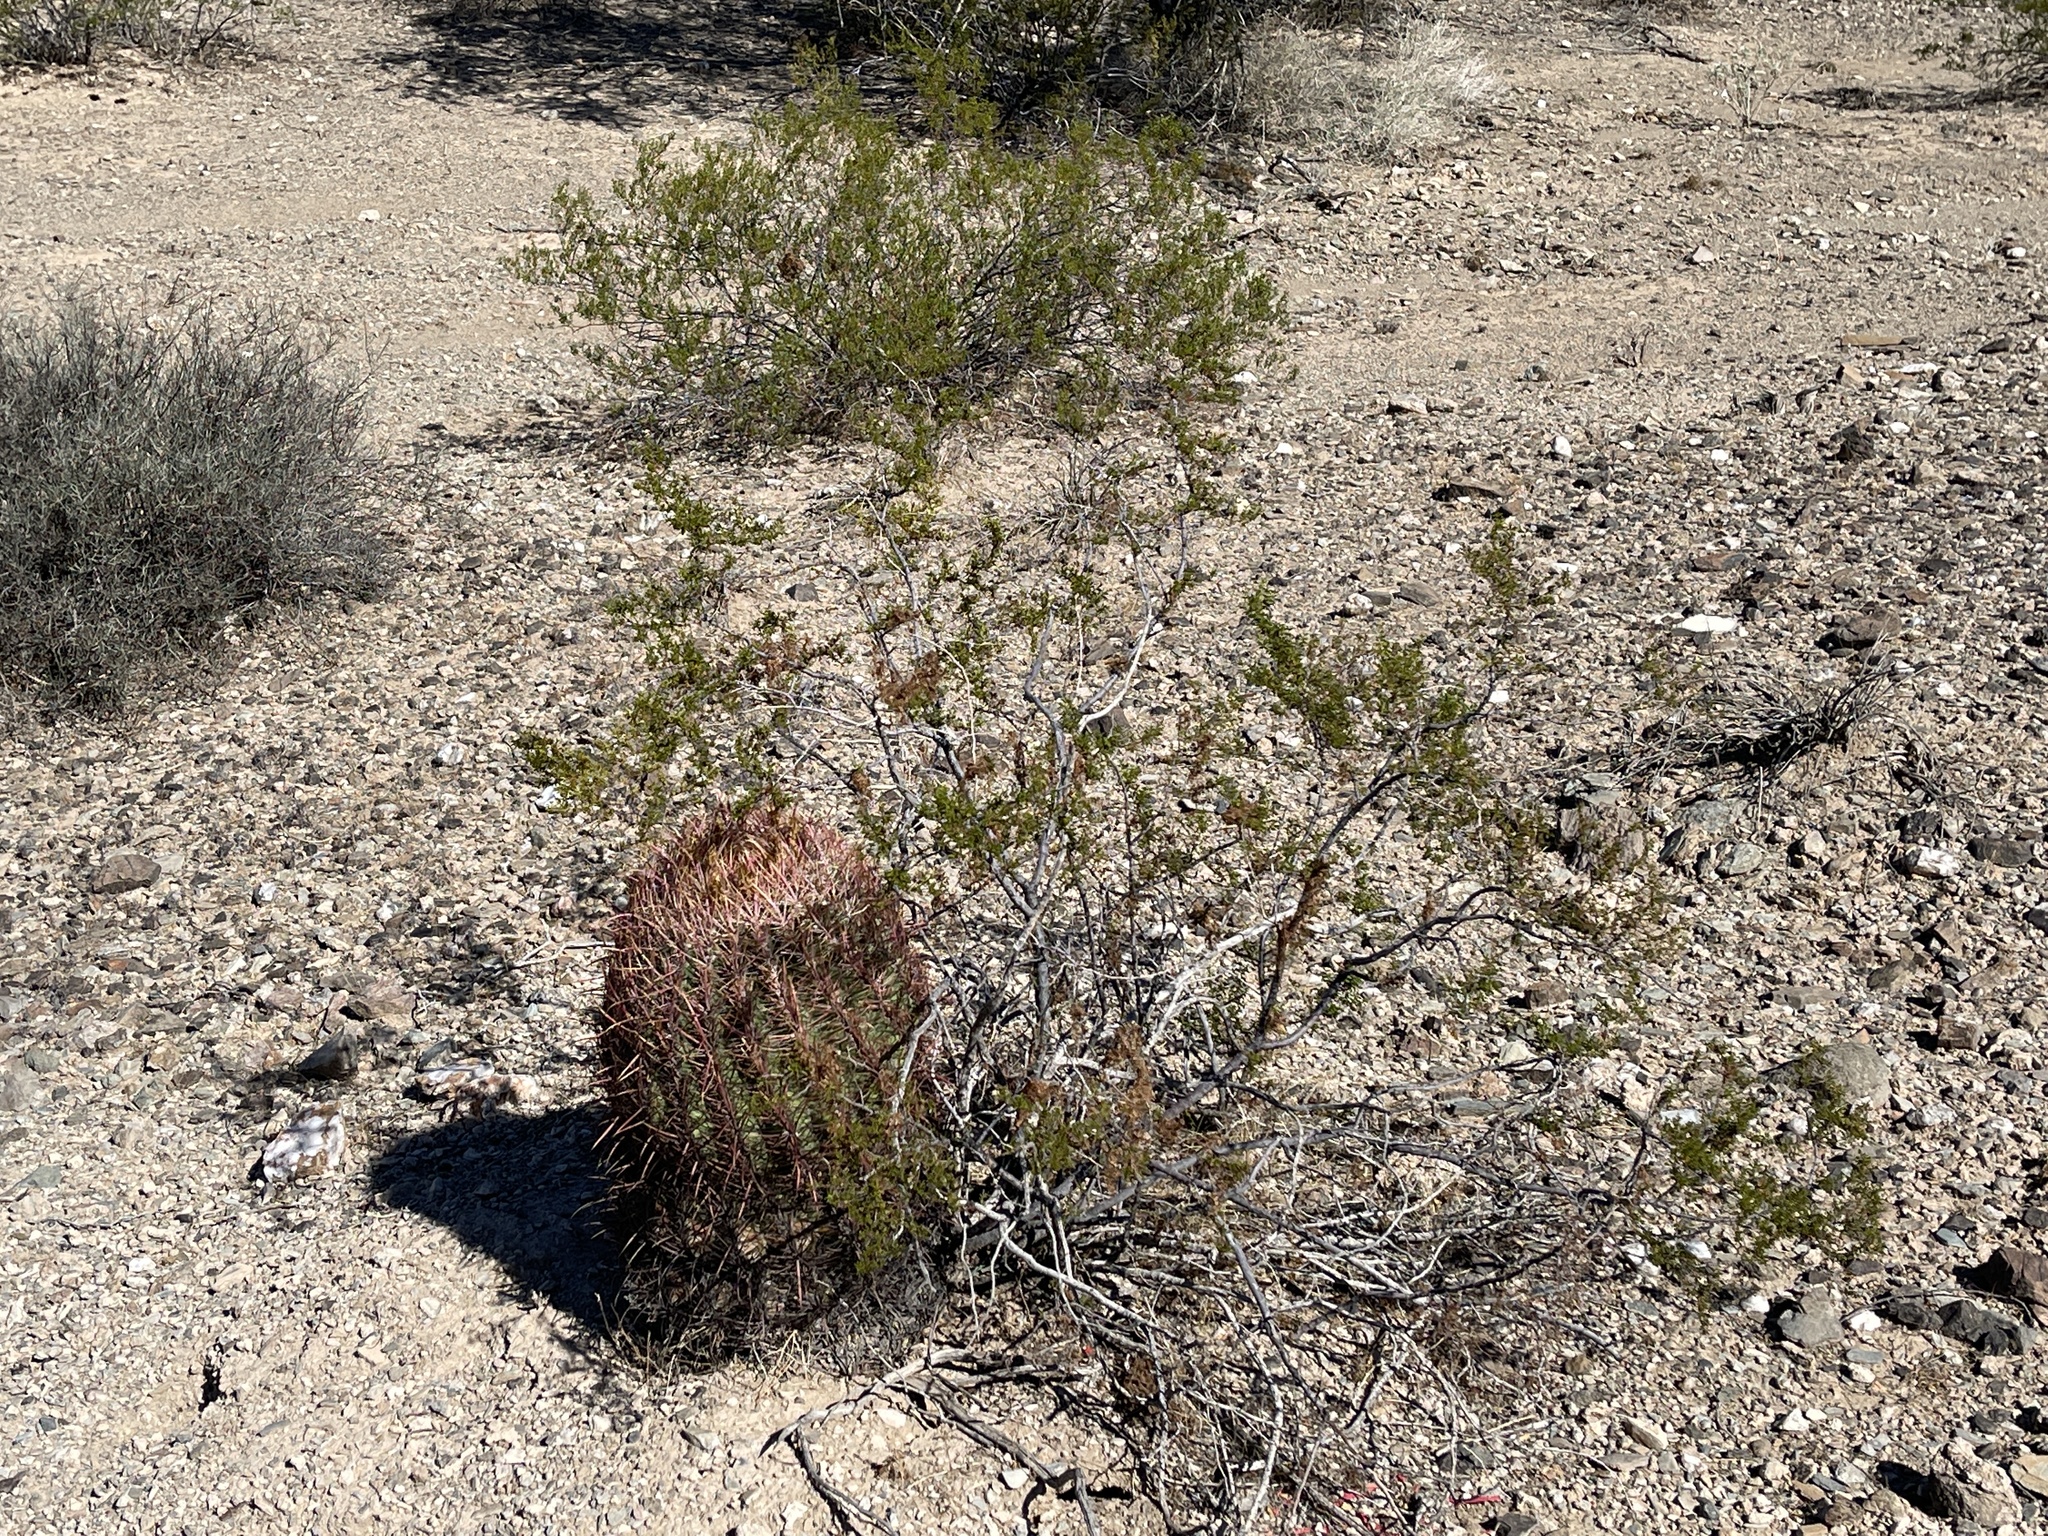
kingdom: Plantae
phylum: Tracheophyta
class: Magnoliopsida
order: Zygophyllales
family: Zygophyllaceae
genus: Larrea
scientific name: Larrea tridentata
